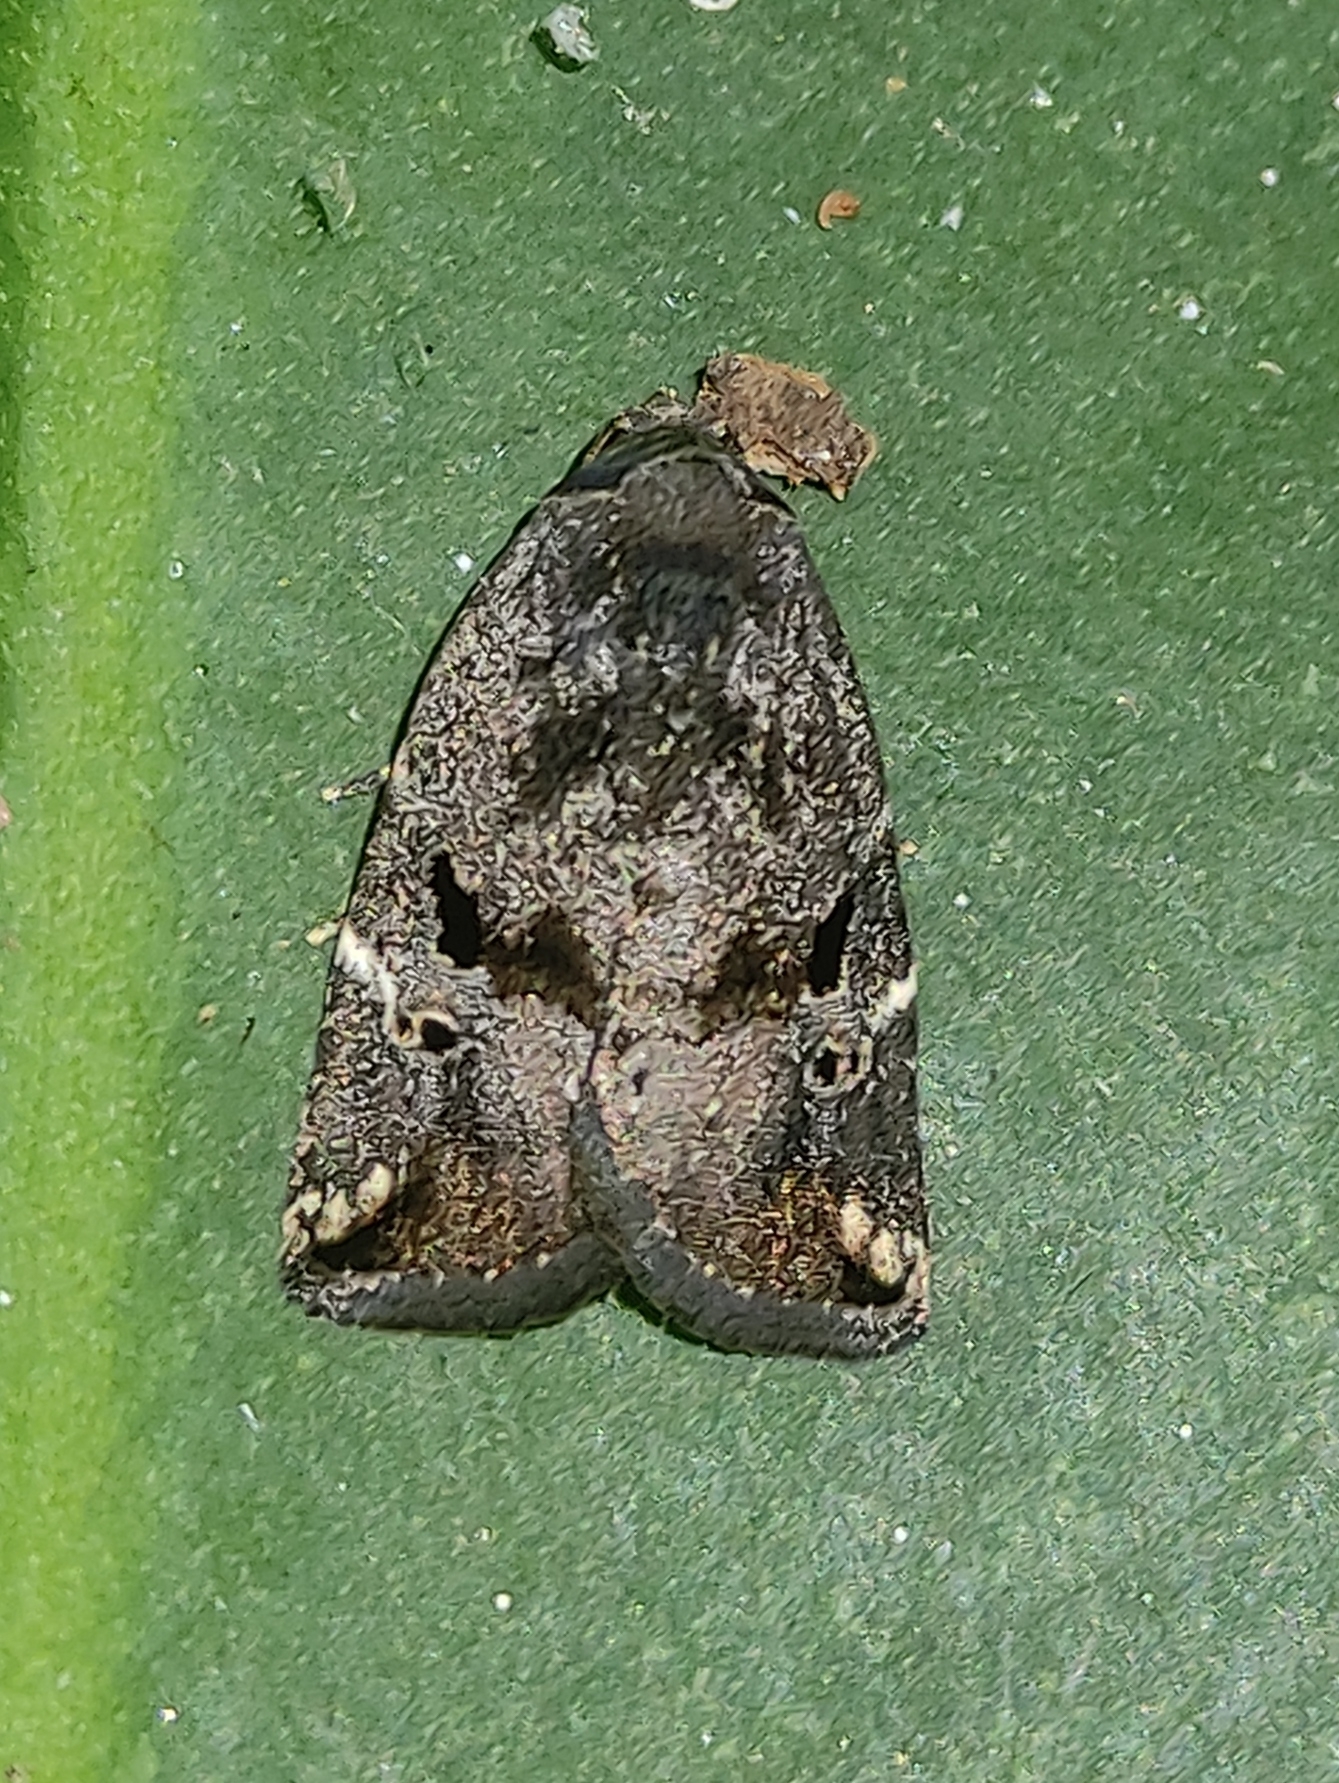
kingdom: Animalia
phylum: Arthropoda
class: Insecta
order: Lepidoptera
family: Noctuidae
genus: Elaphria
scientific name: Elaphria barbarossa
